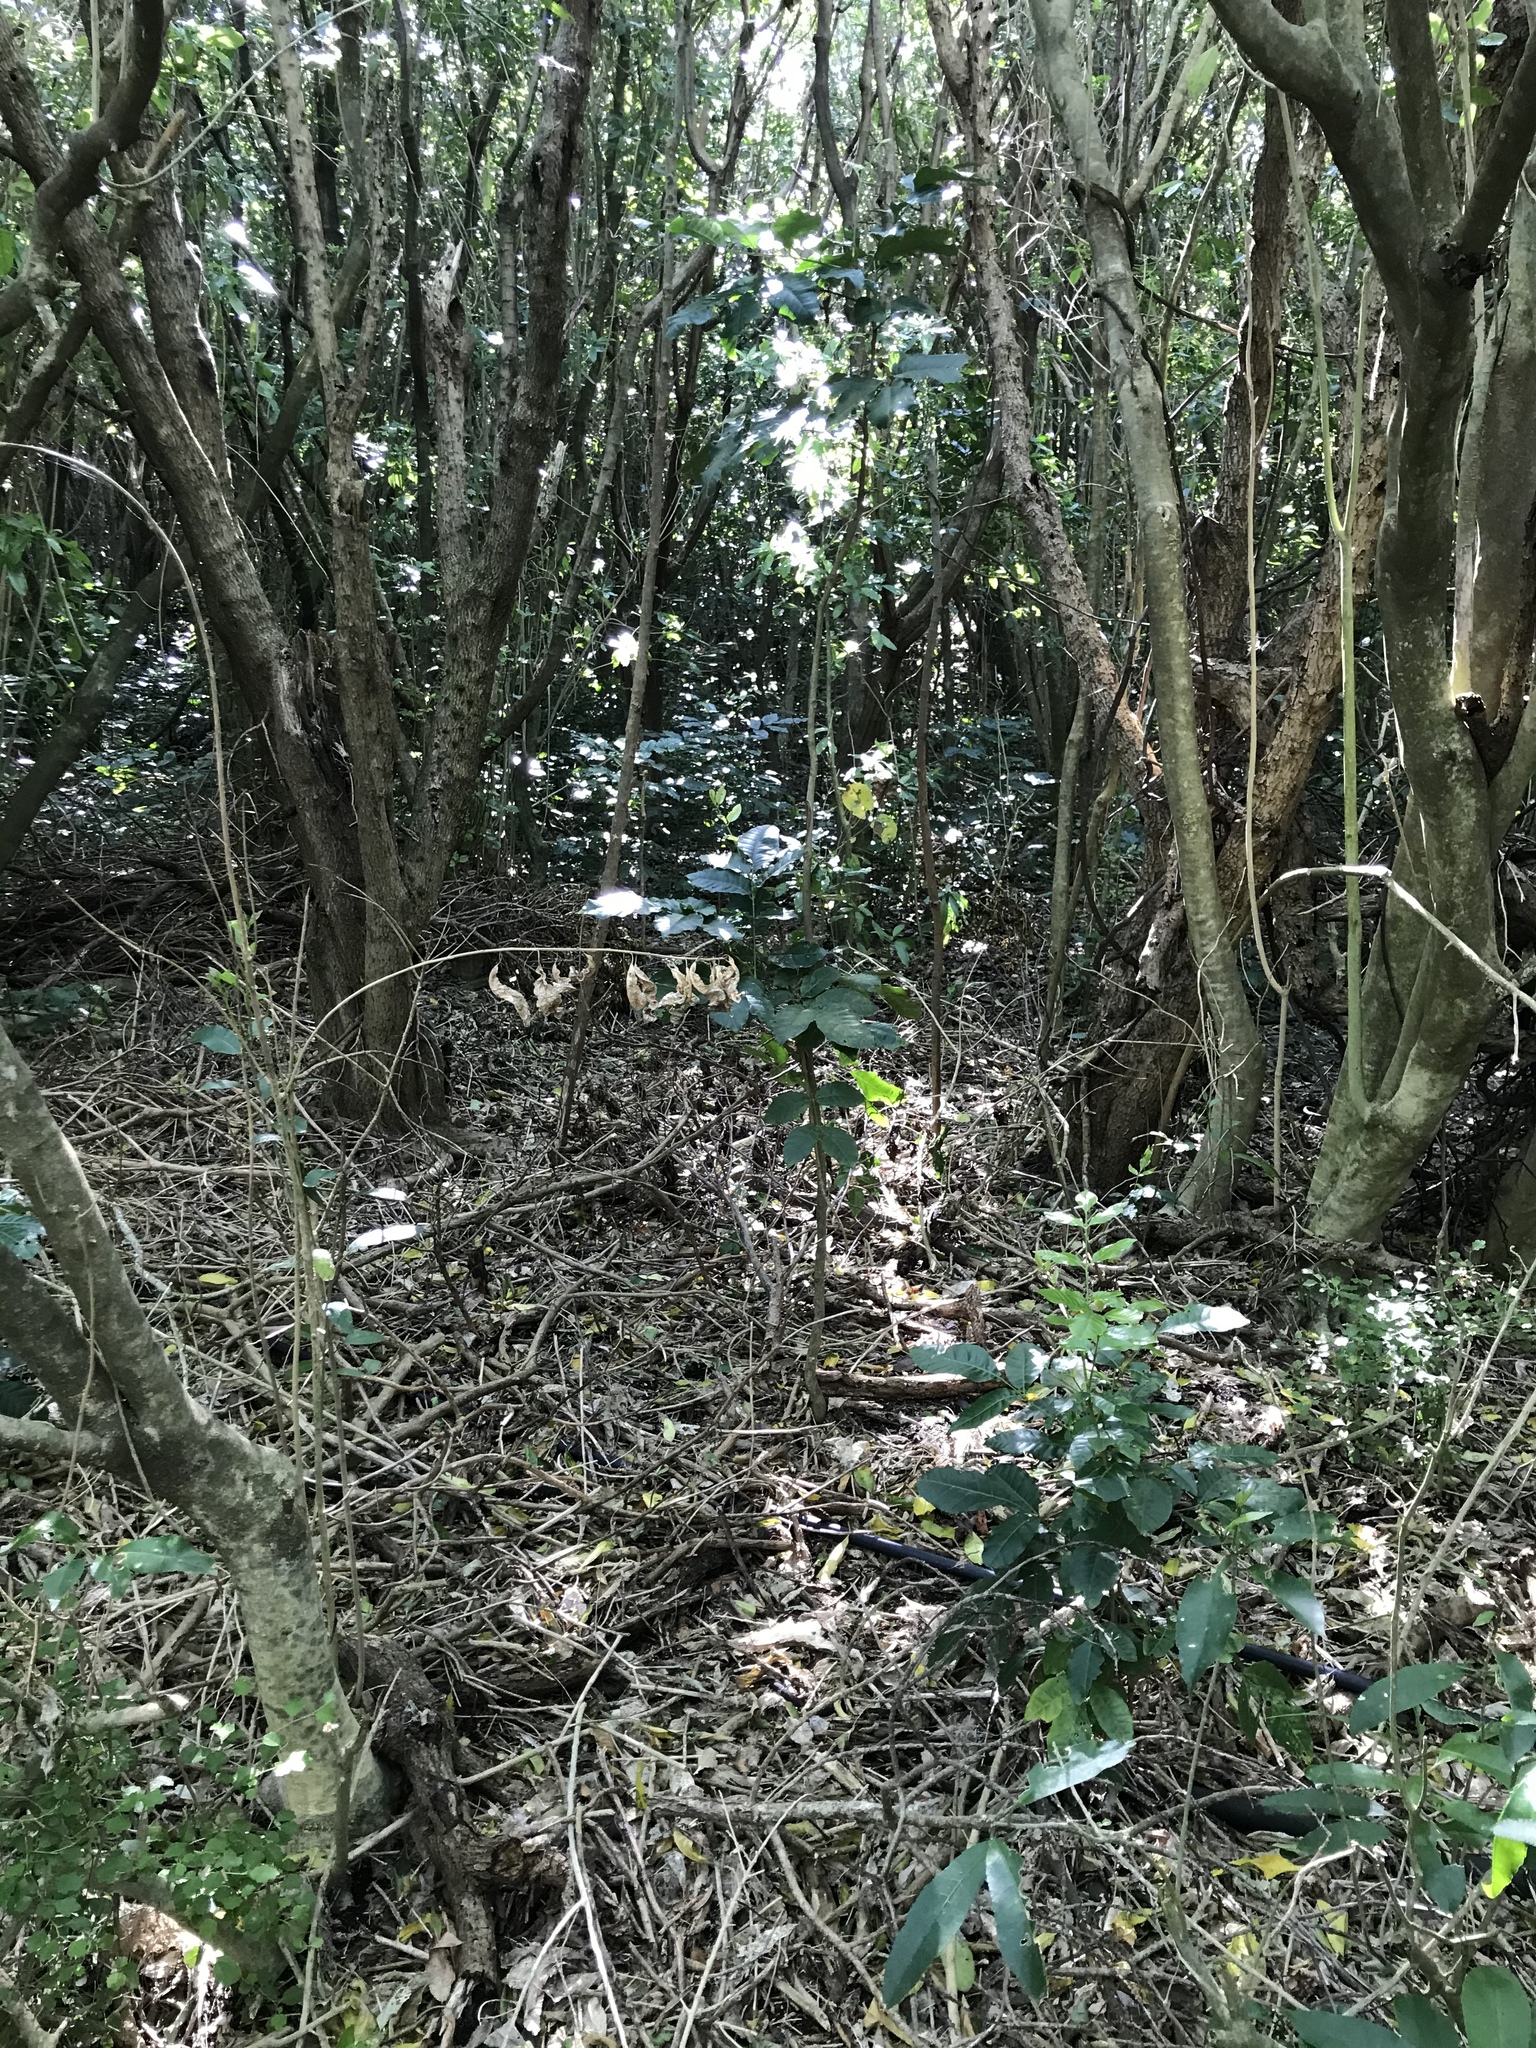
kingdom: Plantae
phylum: Tracheophyta
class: Magnoliopsida
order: Sapindales
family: Meliaceae
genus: Didymocheton
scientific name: Didymocheton spectabilis
